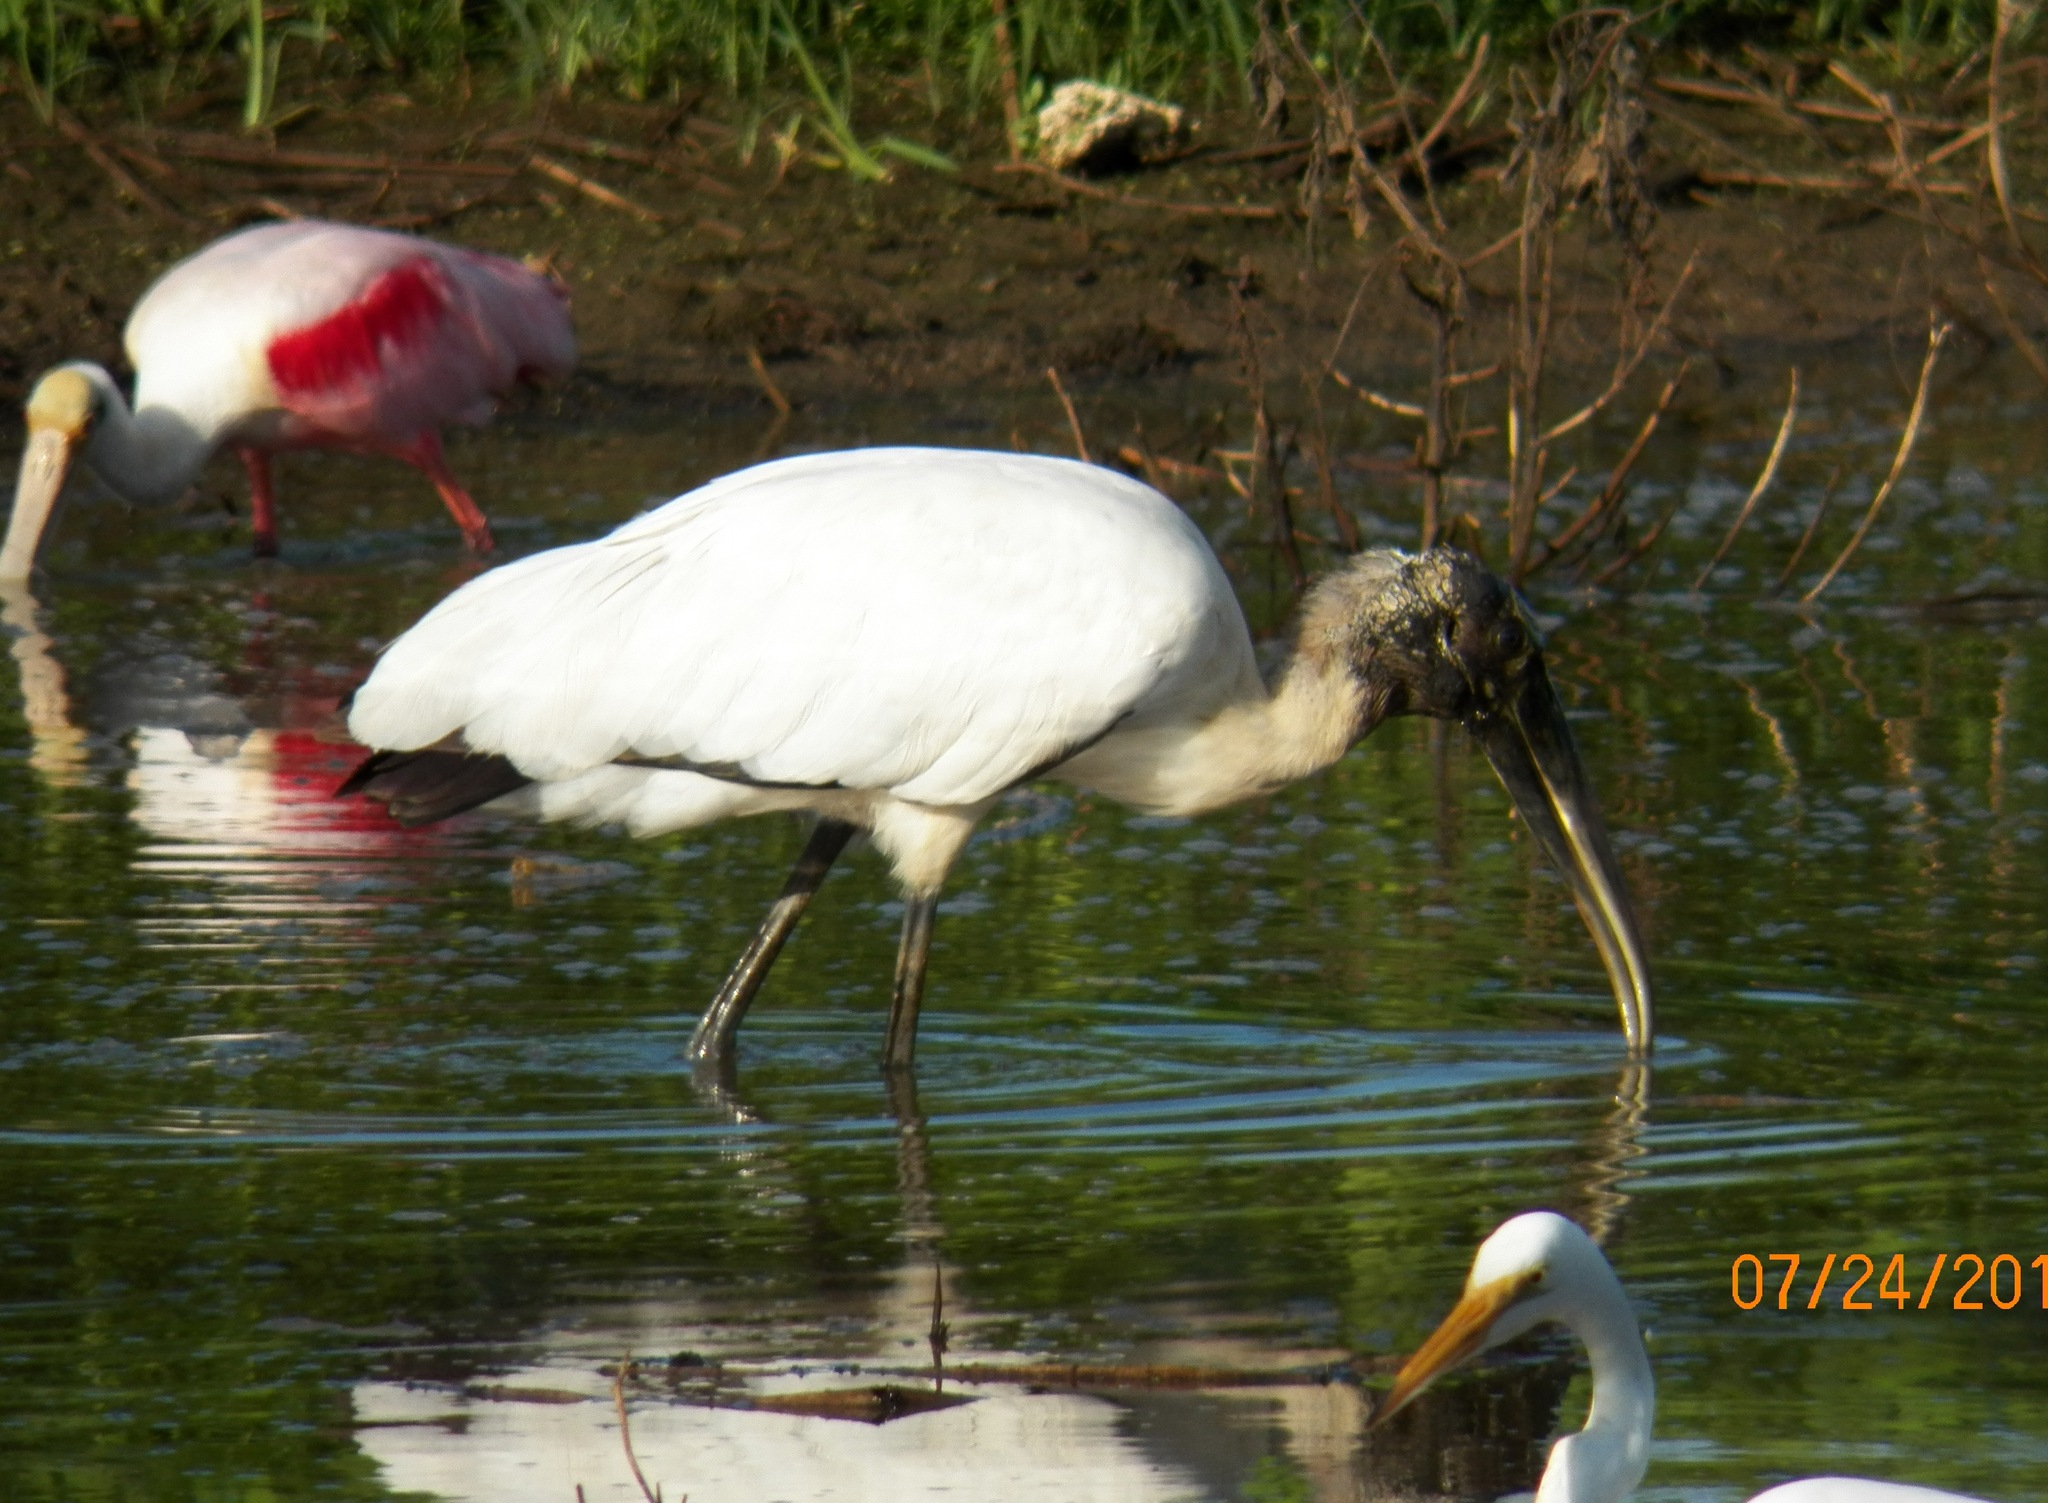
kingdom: Animalia
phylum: Chordata
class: Aves
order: Ciconiiformes
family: Ciconiidae
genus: Mycteria
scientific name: Mycteria americana
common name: Wood stork
